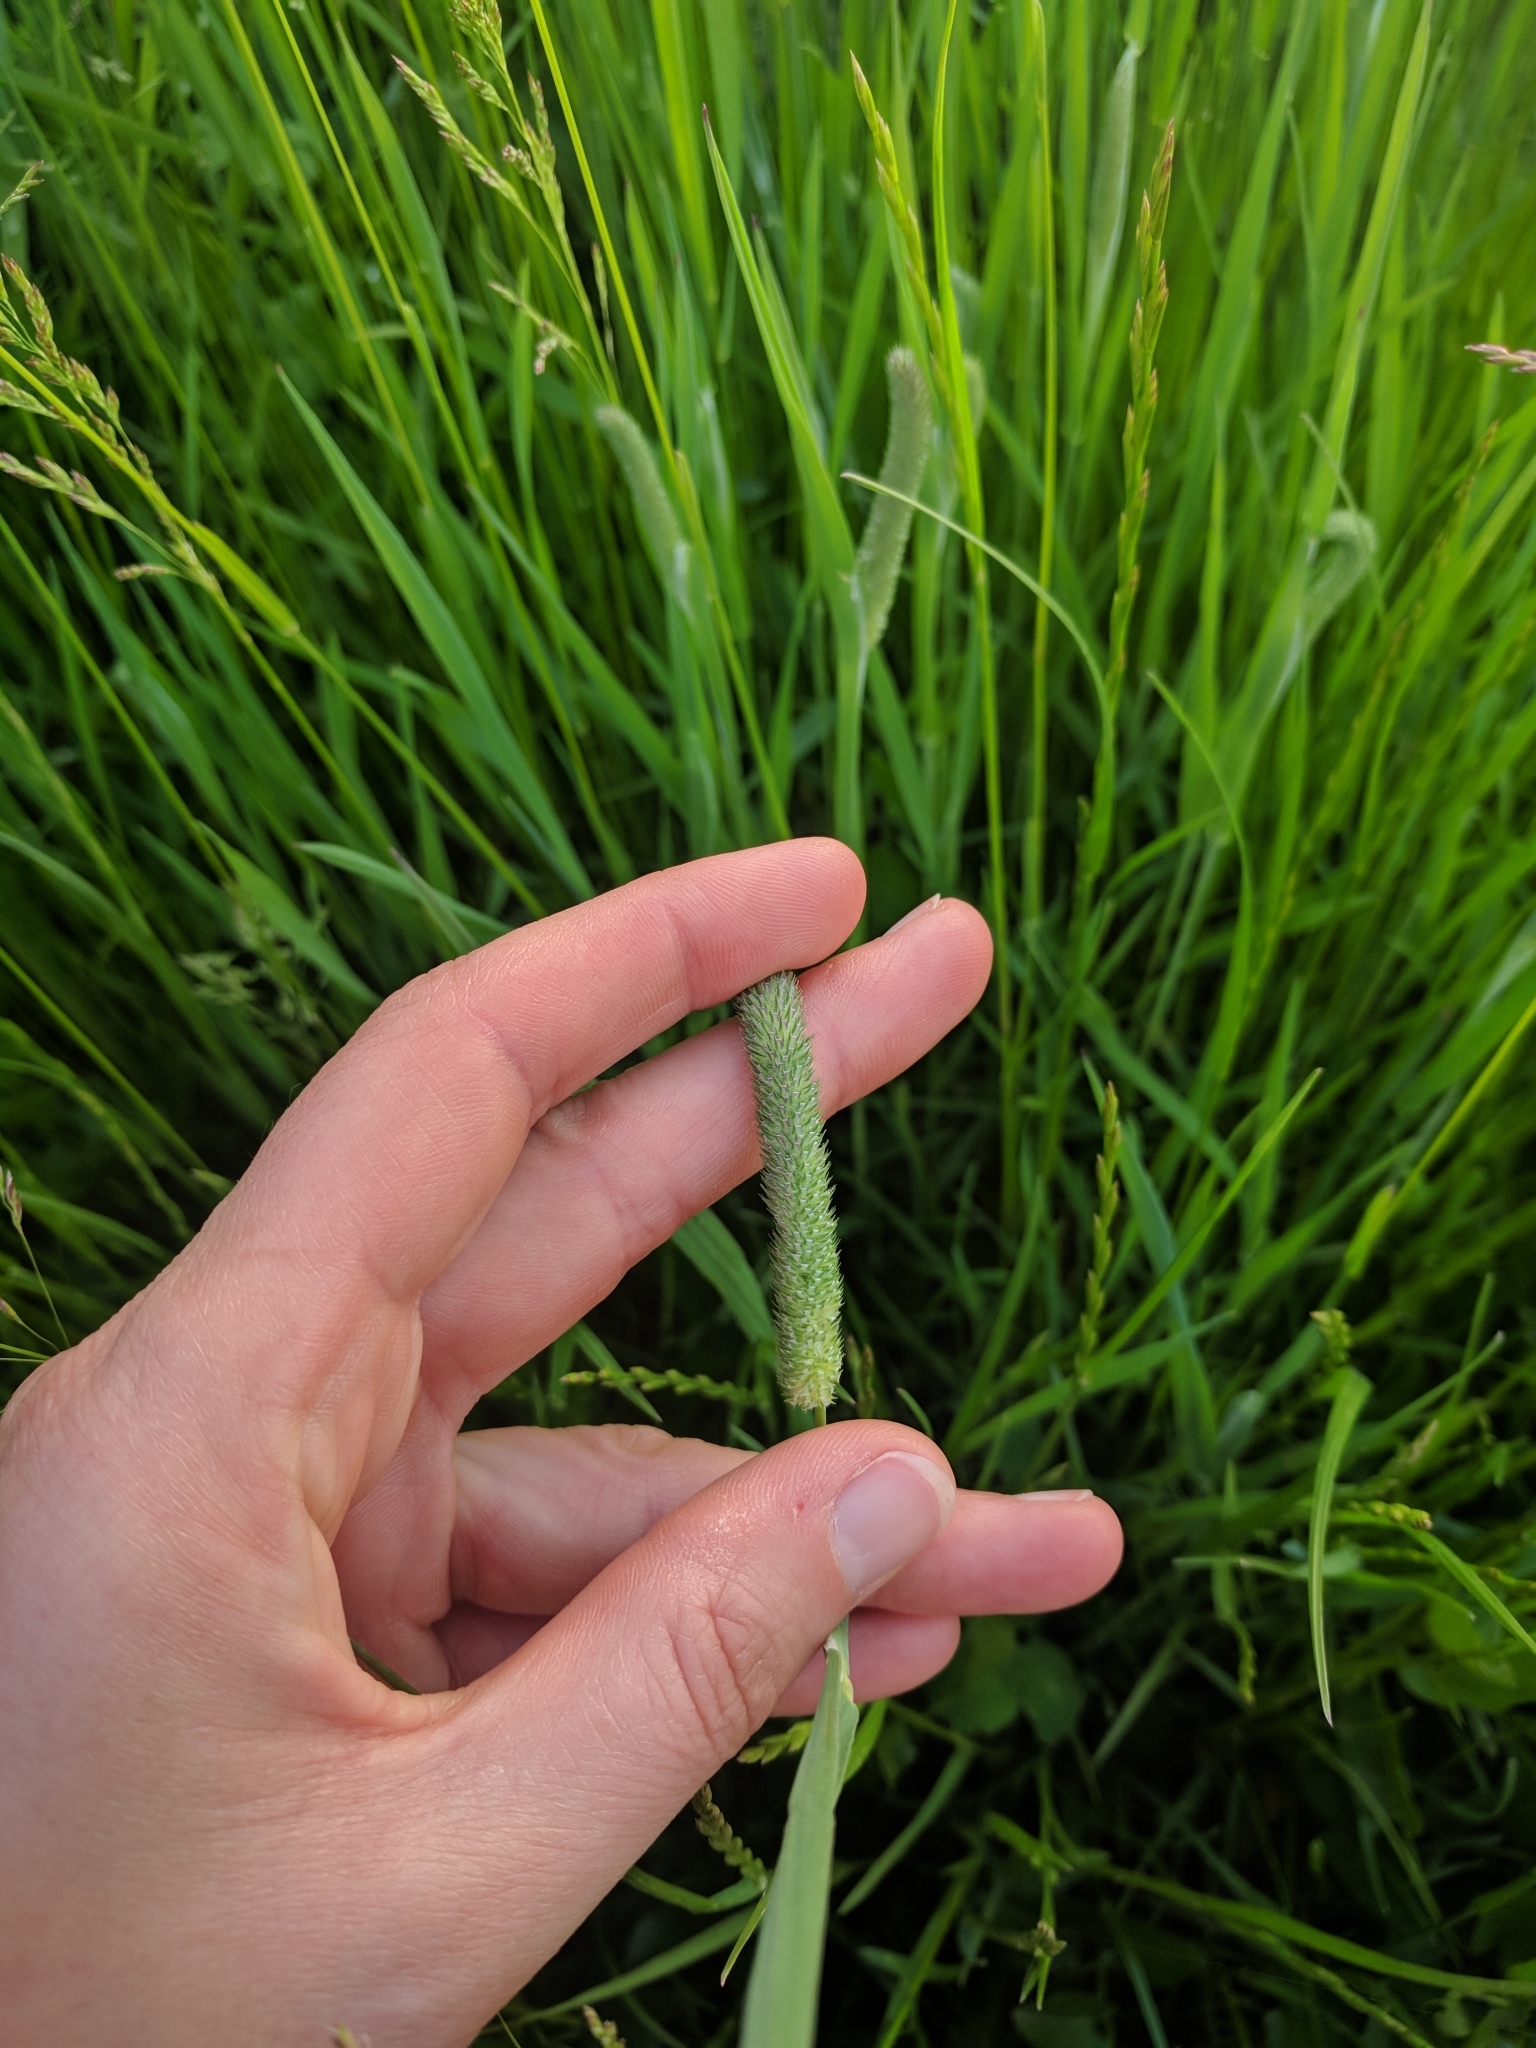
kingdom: Plantae
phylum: Tracheophyta
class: Liliopsida
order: Poales
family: Poaceae
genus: Phleum
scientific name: Phleum pratense
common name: Timothy grass
